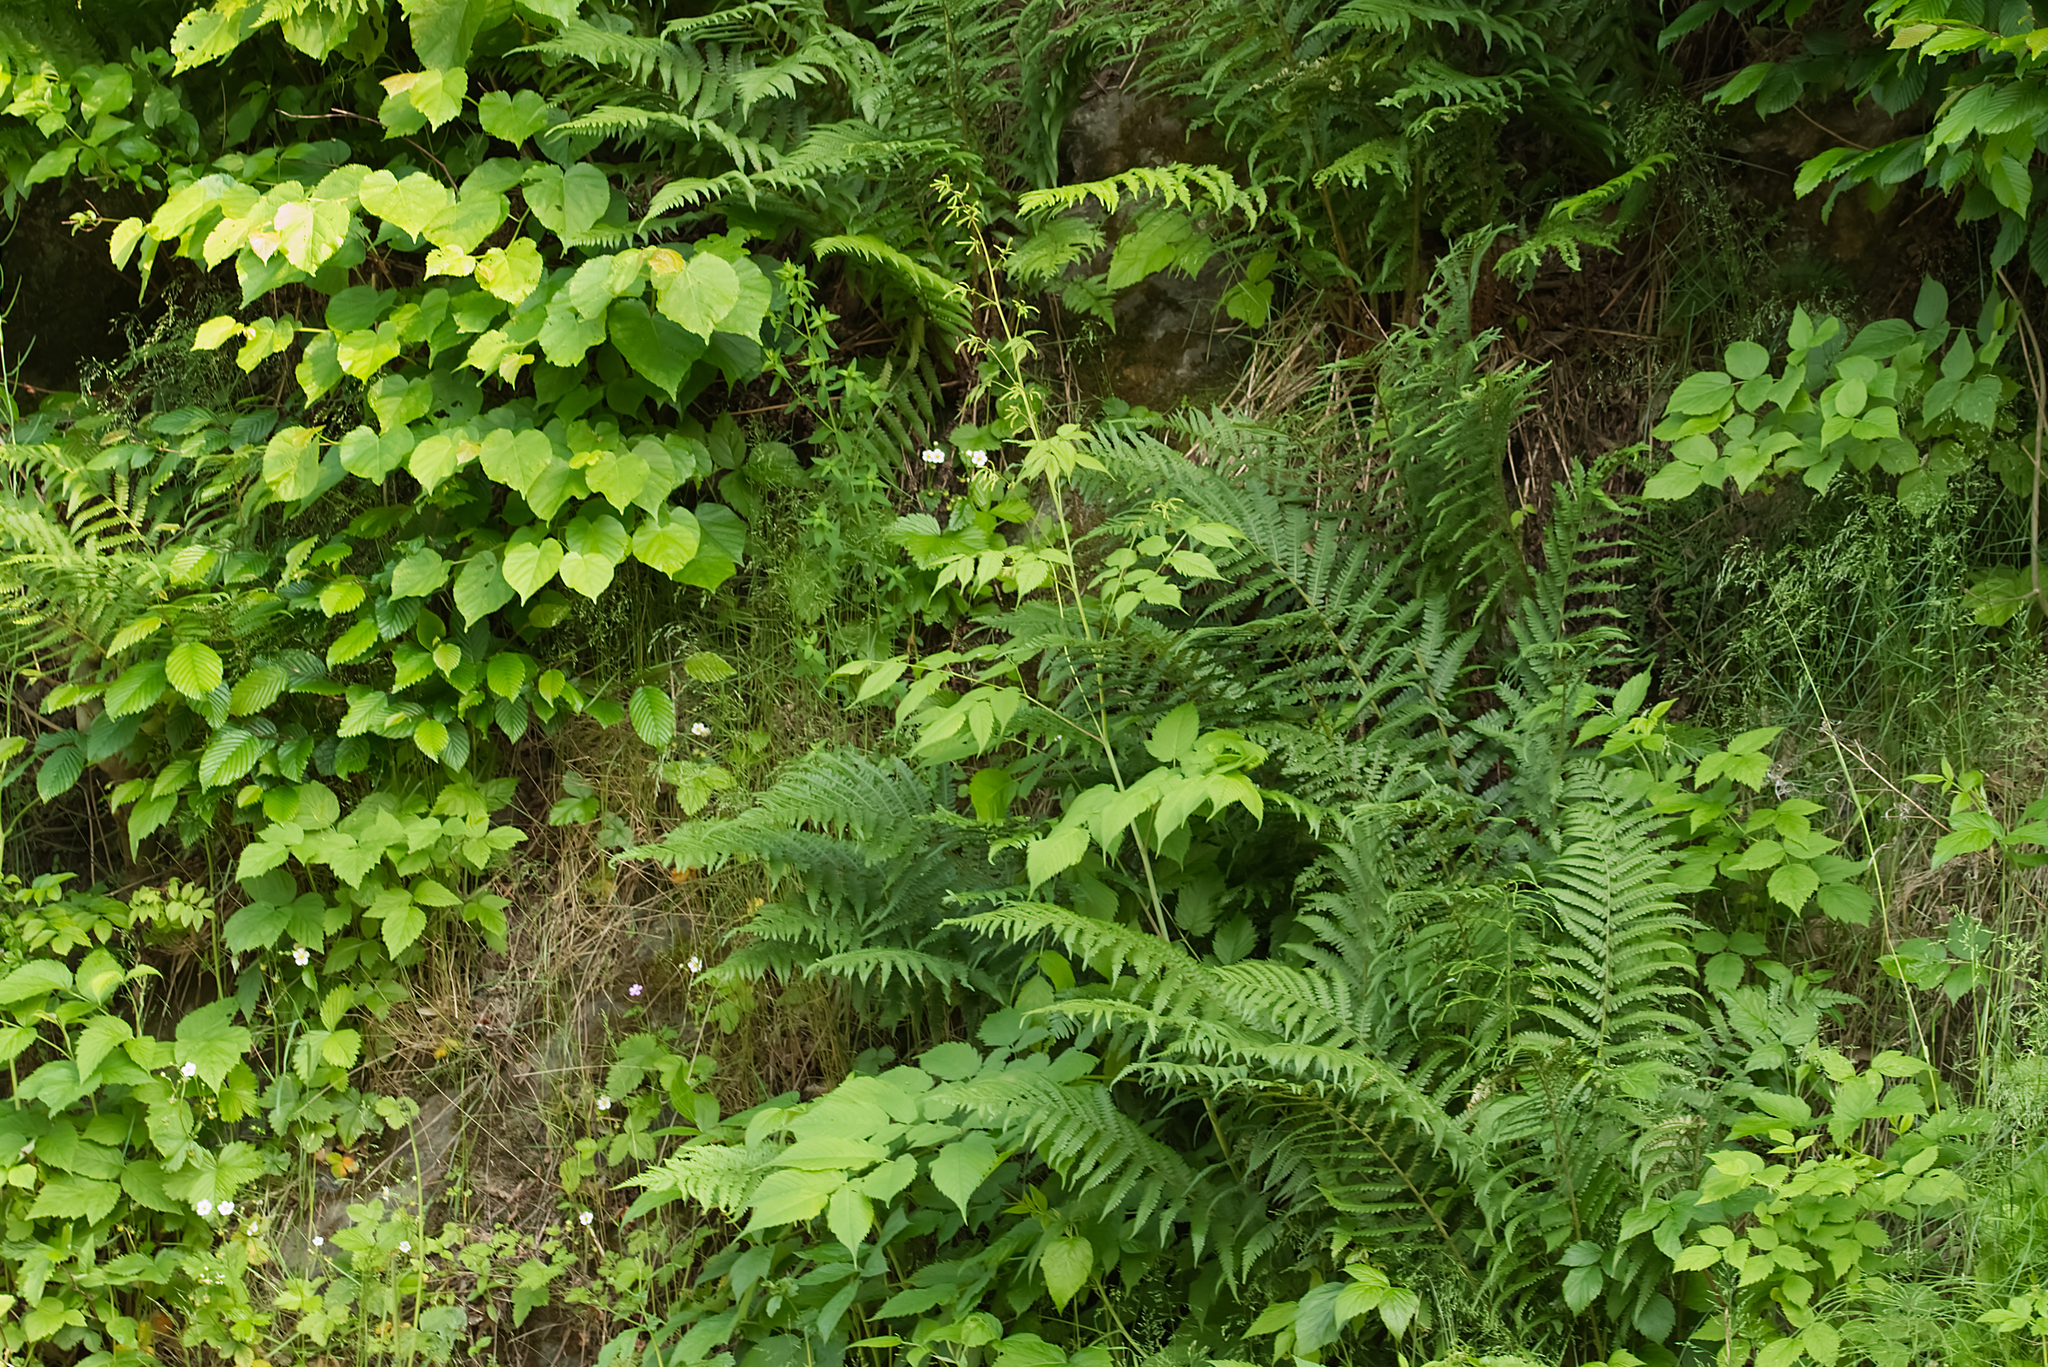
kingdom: Plantae
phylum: Tracheophyta
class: Magnoliopsida
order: Rosales
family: Rosaceae
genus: Aruncus
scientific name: Aruncus dioicus
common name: Buck's-beard
